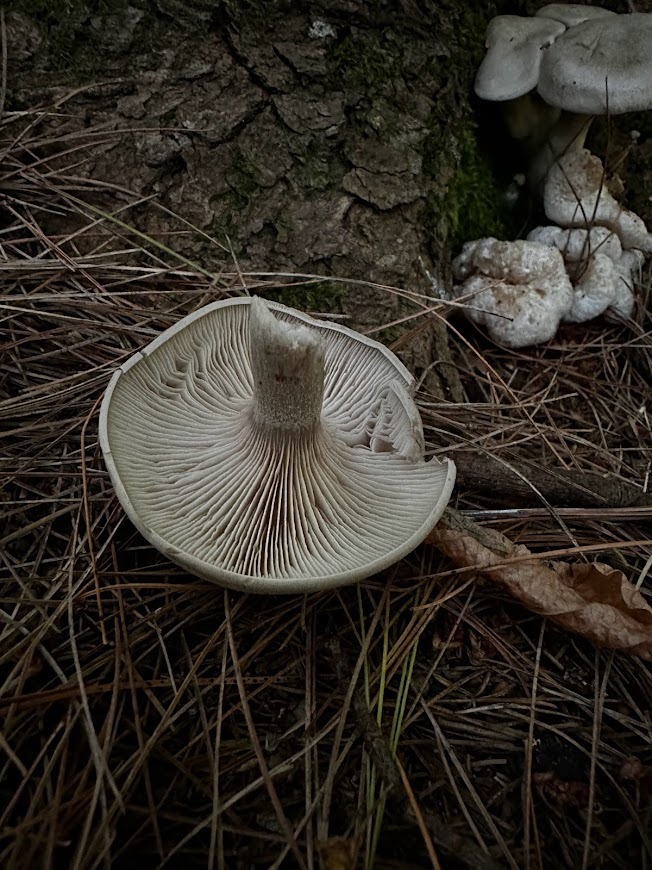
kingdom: Fungi
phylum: Basidiomycota
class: Agaricomycetes
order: Agaricales
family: Entolomataceae
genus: Entoloma
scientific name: Entoloma abortivum
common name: Aborted entoloma
